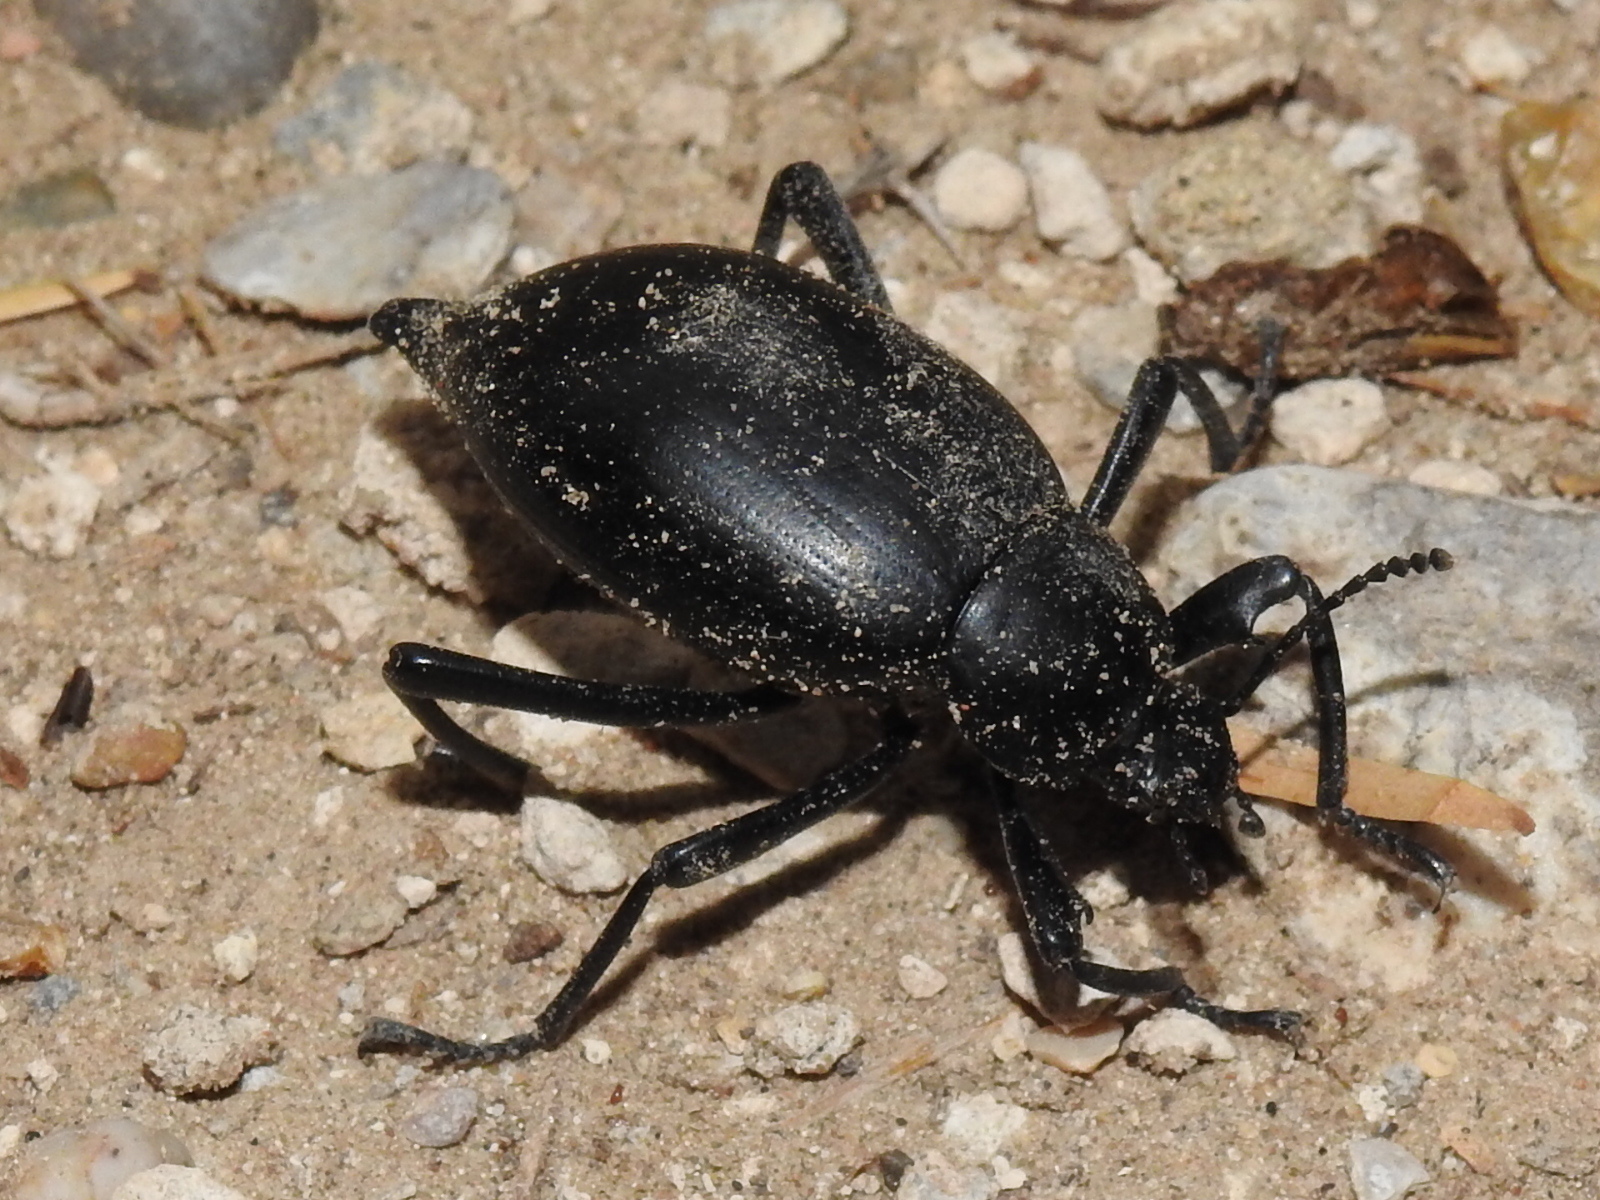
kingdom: Animalia
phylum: Arthropoda
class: Insecta
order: Coleoptera
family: Tenebrionidae
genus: Eleodes
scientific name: Eleodes spinipes
